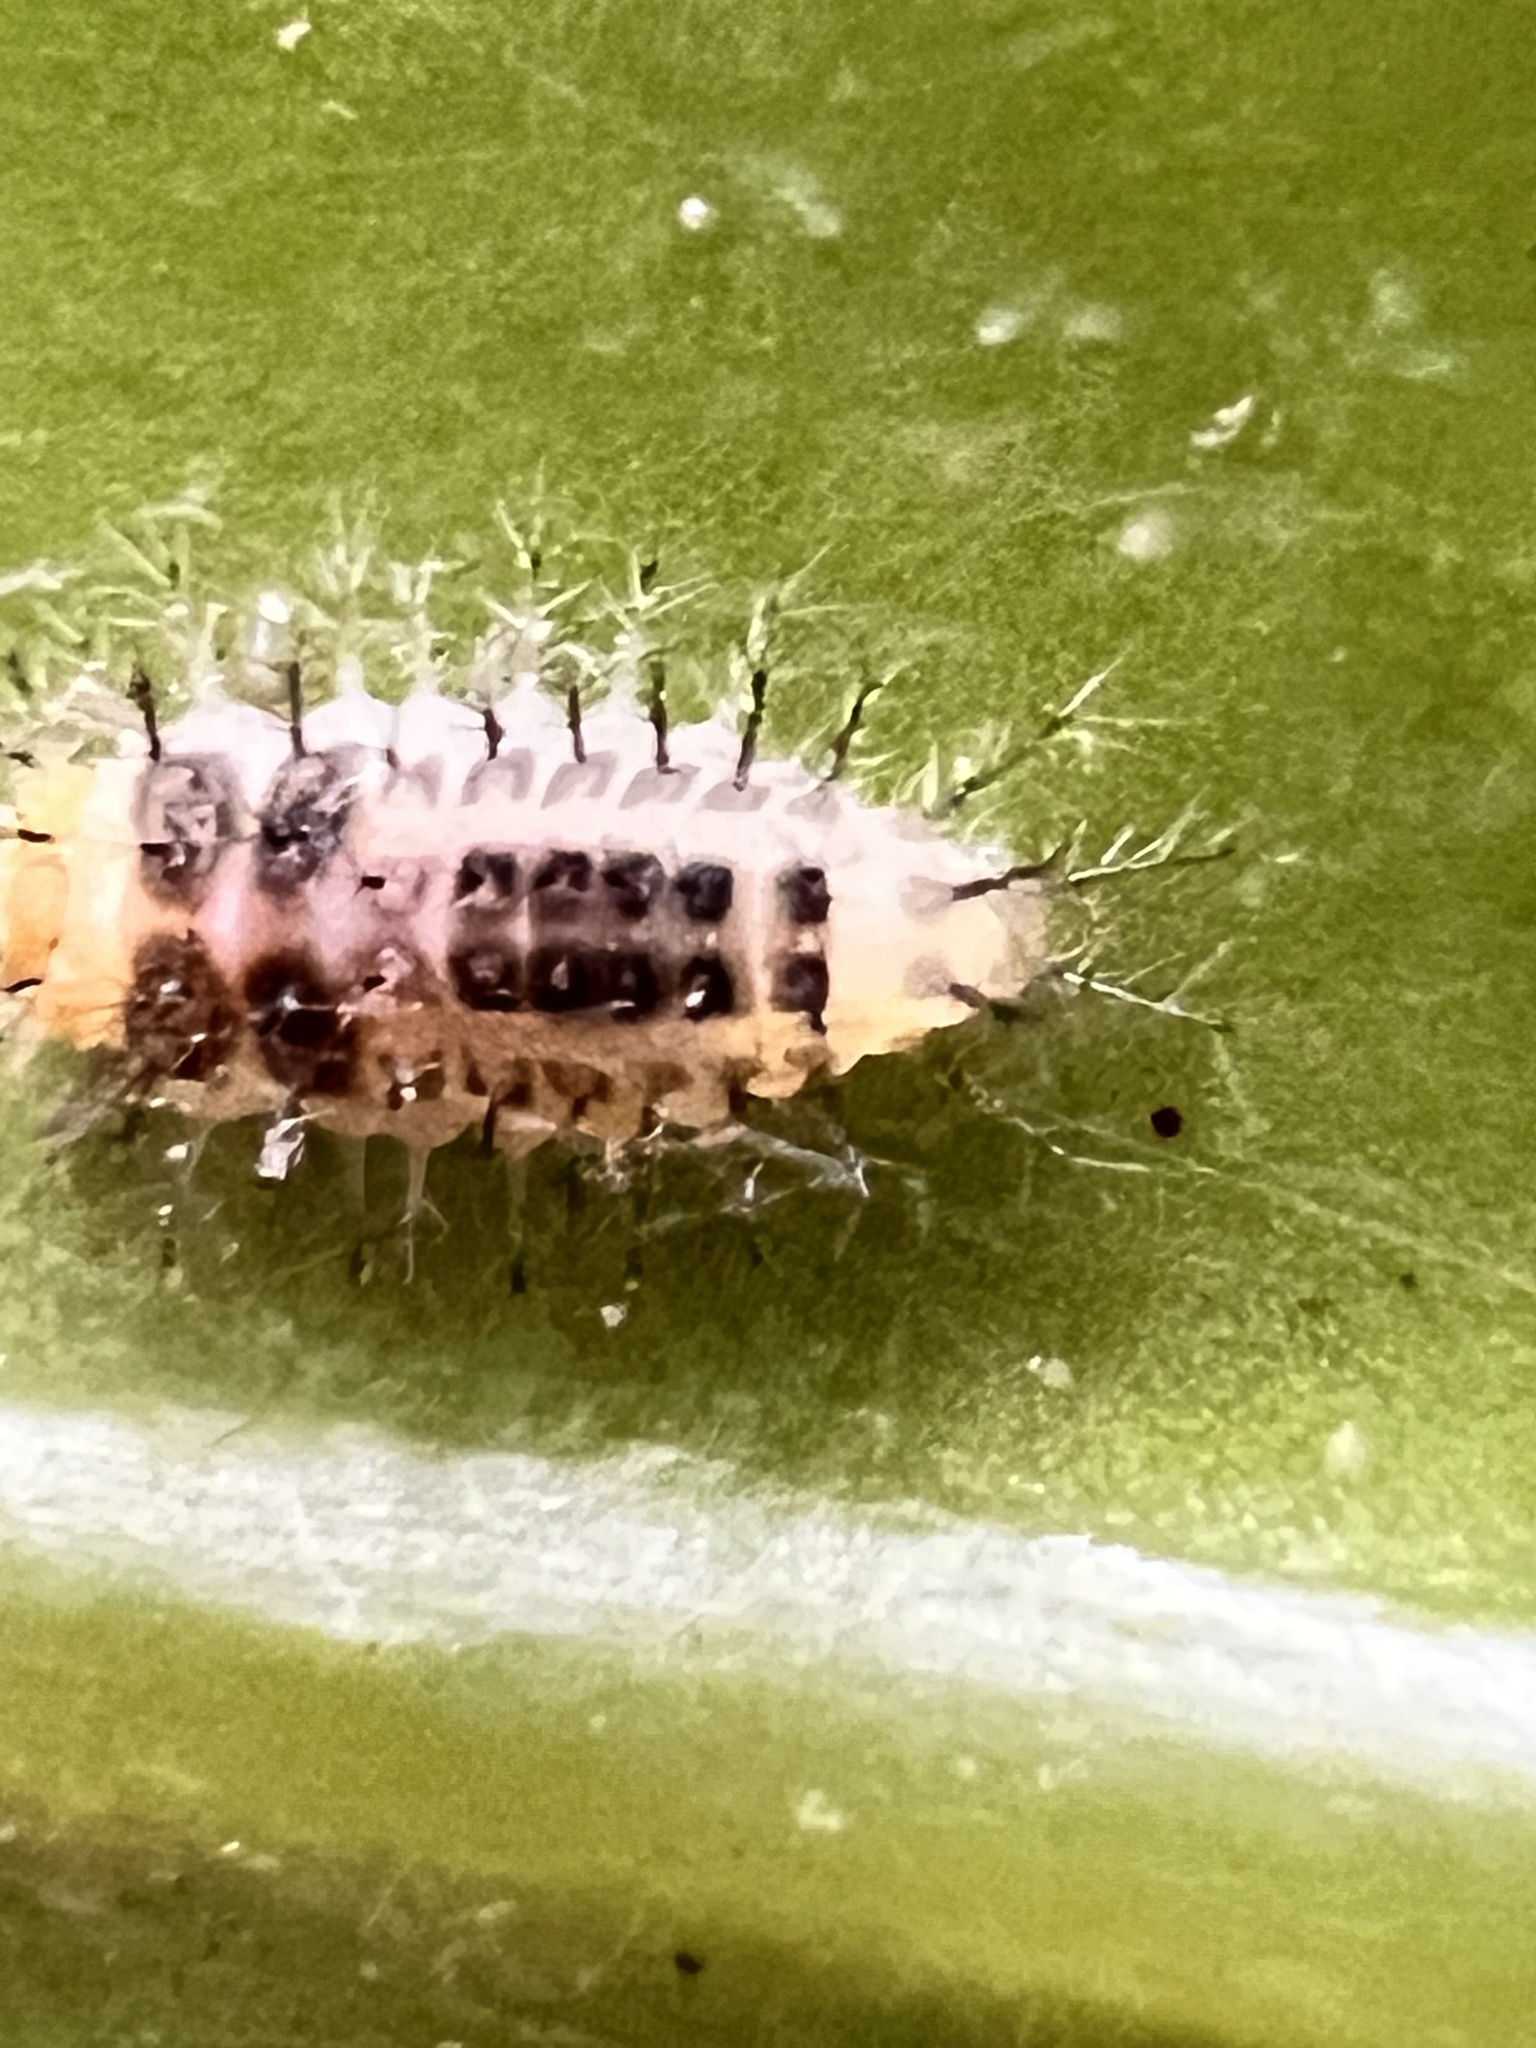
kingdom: Animalia
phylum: Arthropoda
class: Insecta
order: Coleoptera
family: Coccinellidae
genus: Halmus
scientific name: Halmus chalybeus
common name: Steel blue ladybird beetle
